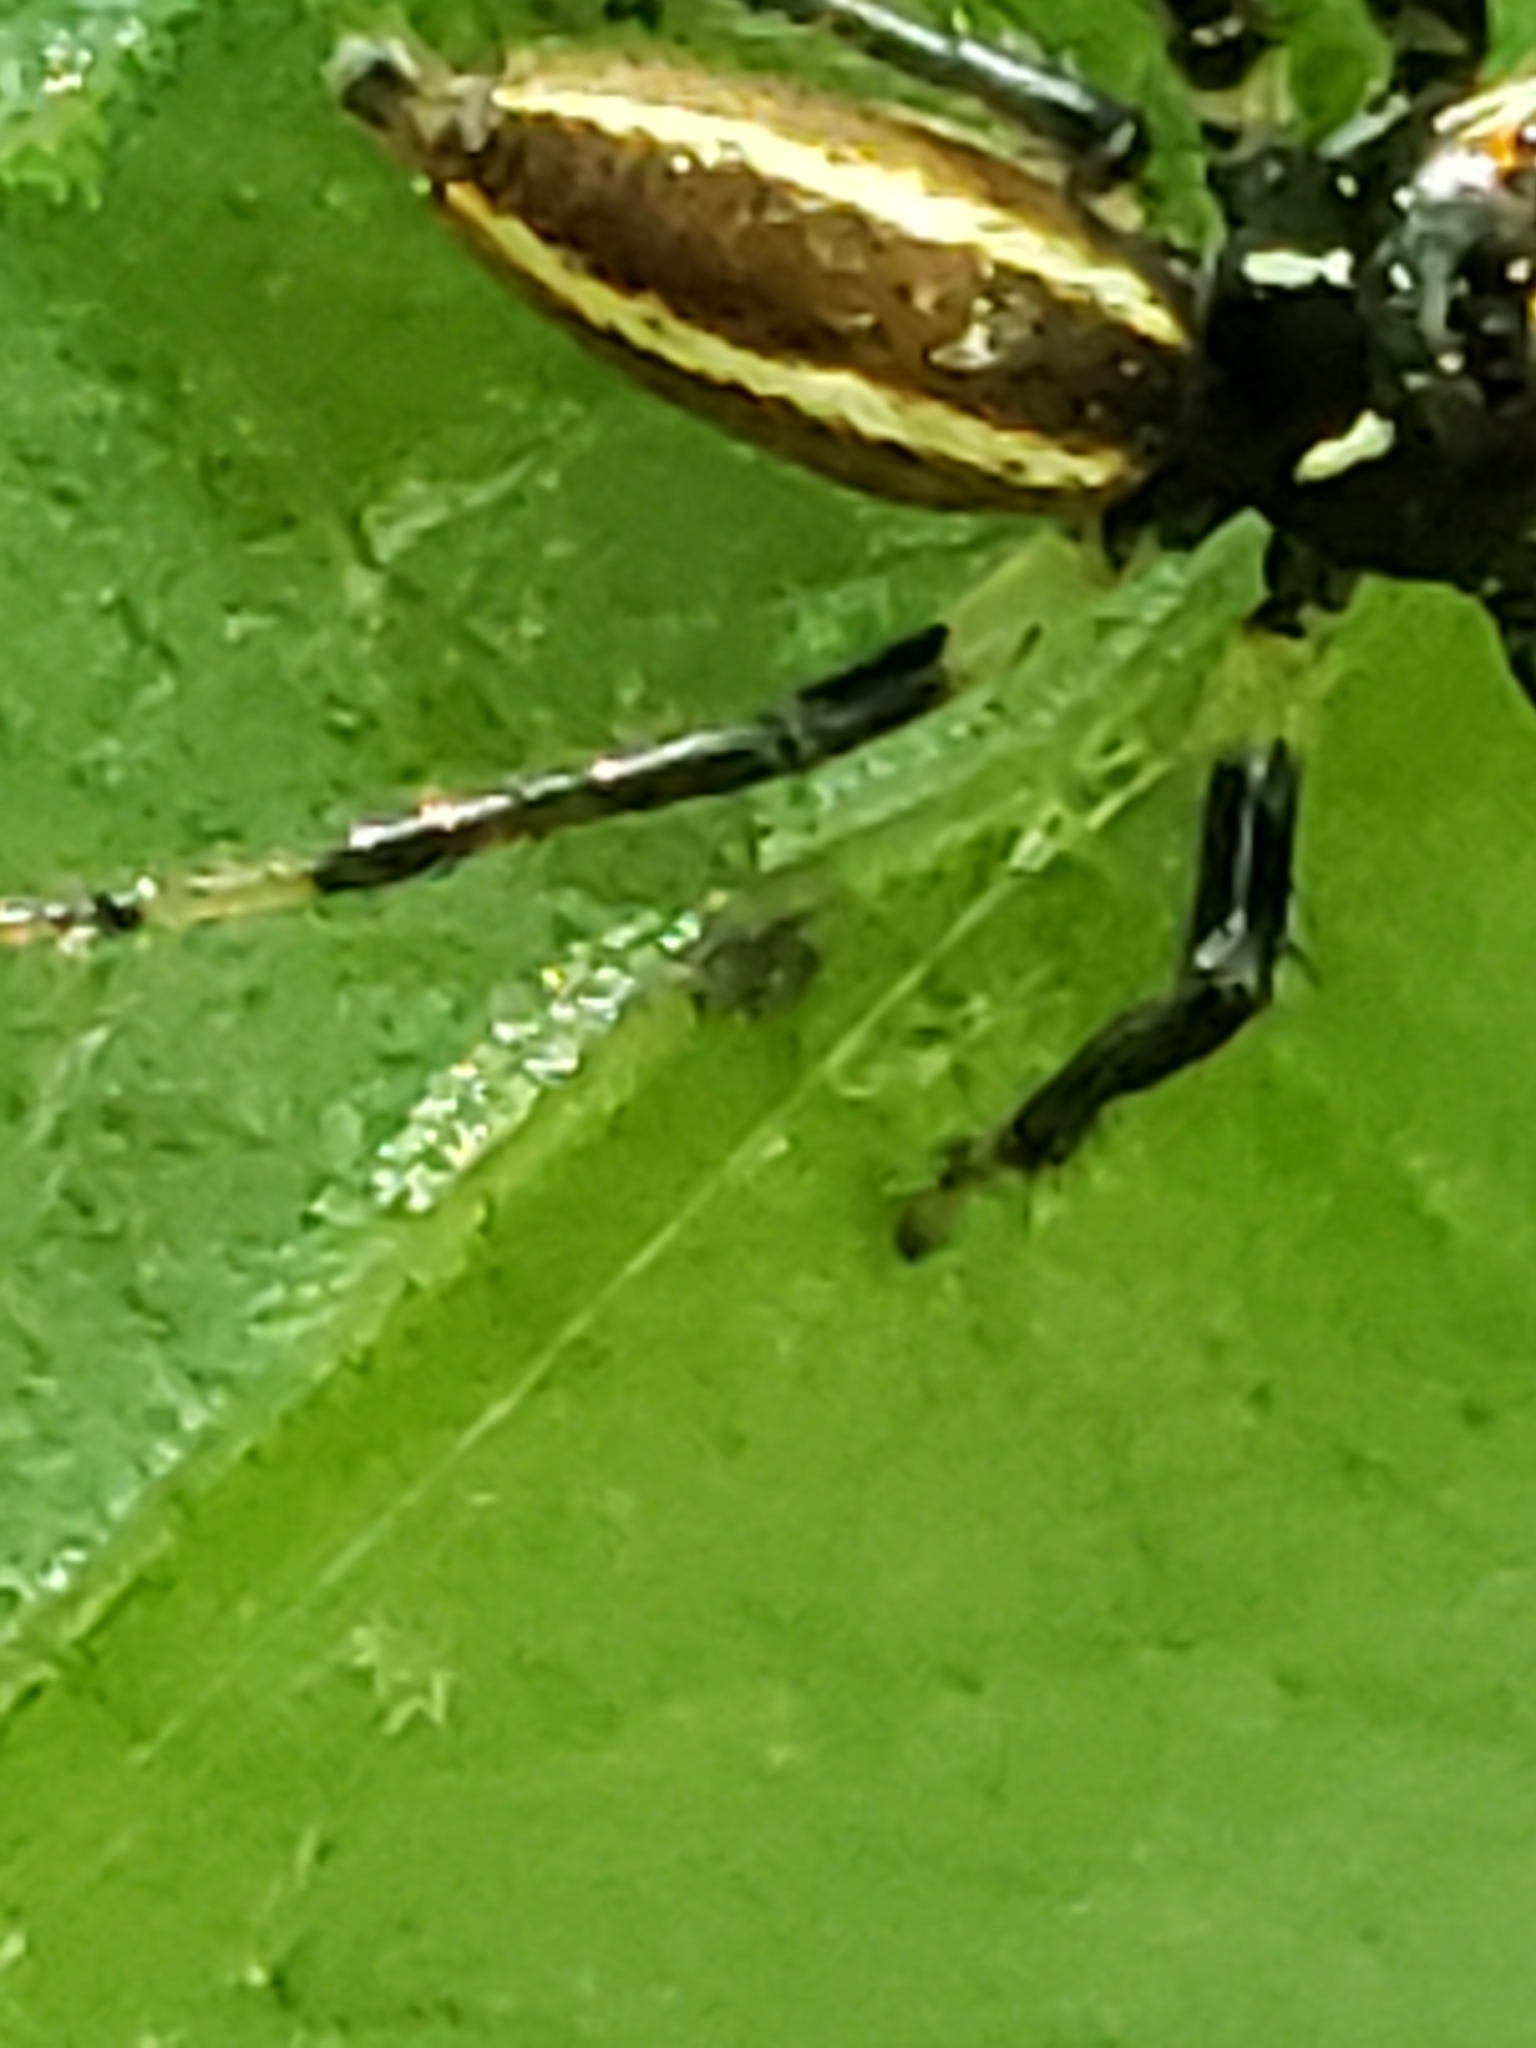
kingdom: Animalia
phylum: Arthropoda
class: Arachnida
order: Araneae
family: Salticidae
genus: Colonus
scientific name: Colonus sylvanus
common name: Jumping spiders
